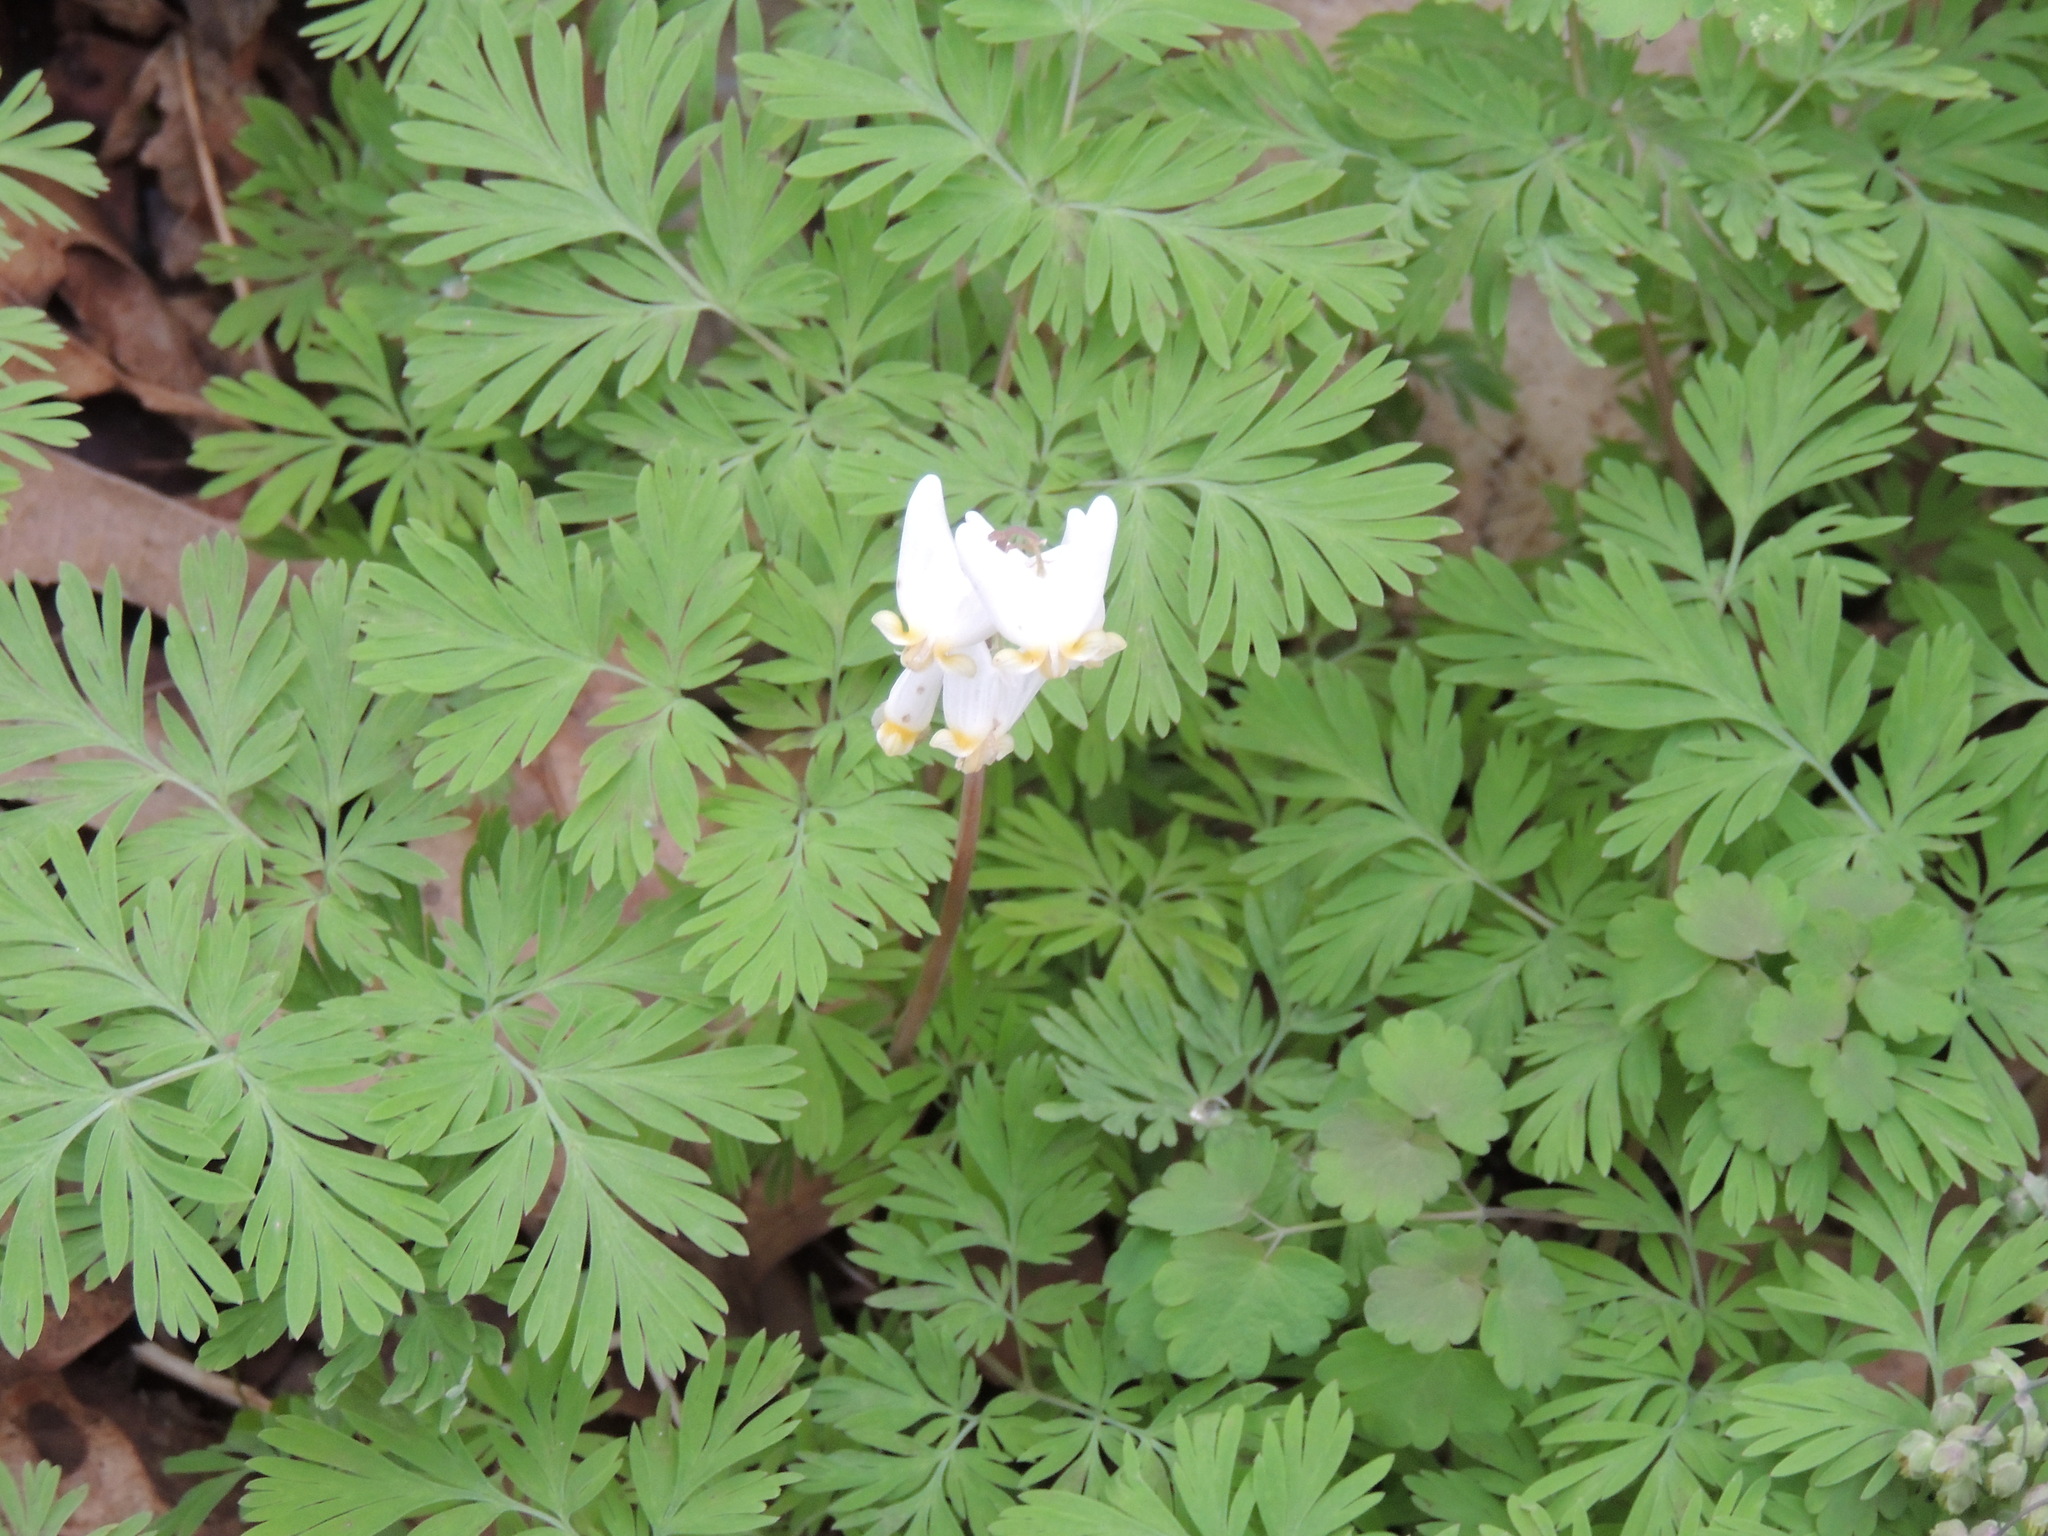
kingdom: Plantae
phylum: Tracheophyta
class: Magnoliopsida
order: Ranunculales
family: Papaveraceae
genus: Dicentra
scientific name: Dicentra cucullaria
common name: Dutchman's breeches
